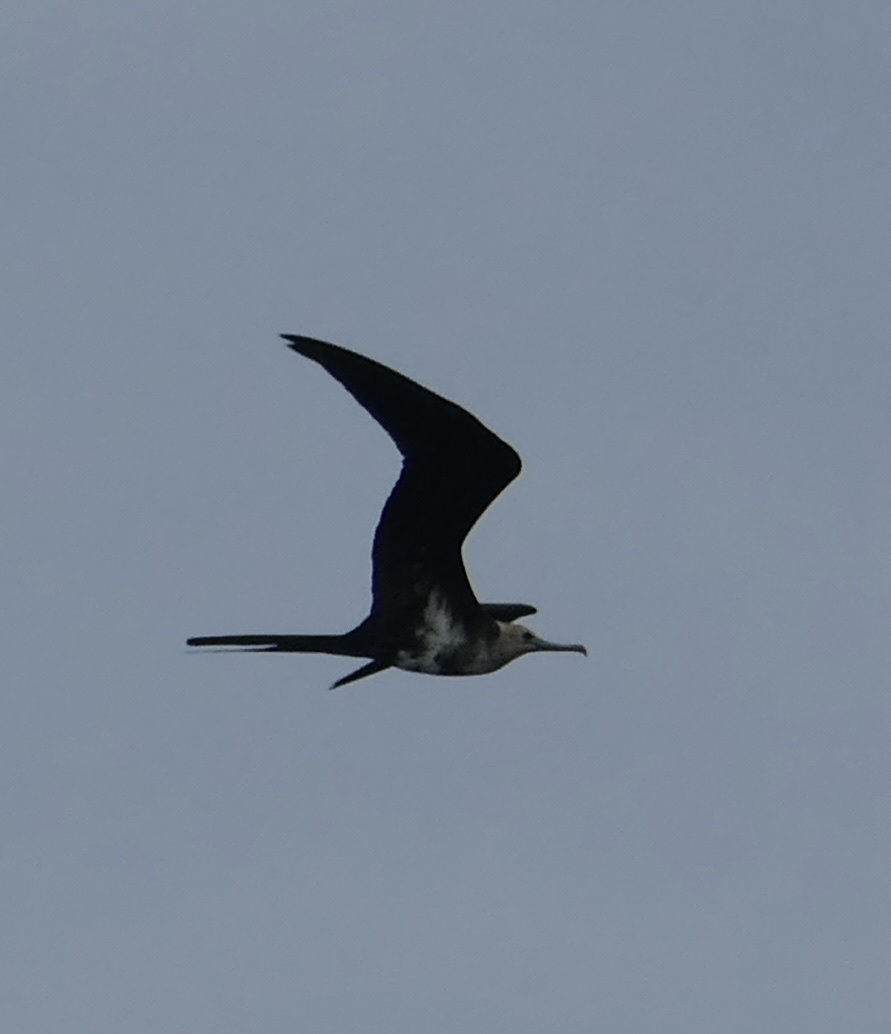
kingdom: Animalia
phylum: Chordata
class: Aves
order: Suliformes
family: Fregatidae
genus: Fregata
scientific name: Fregata ariel
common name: Lesser frigatebird
